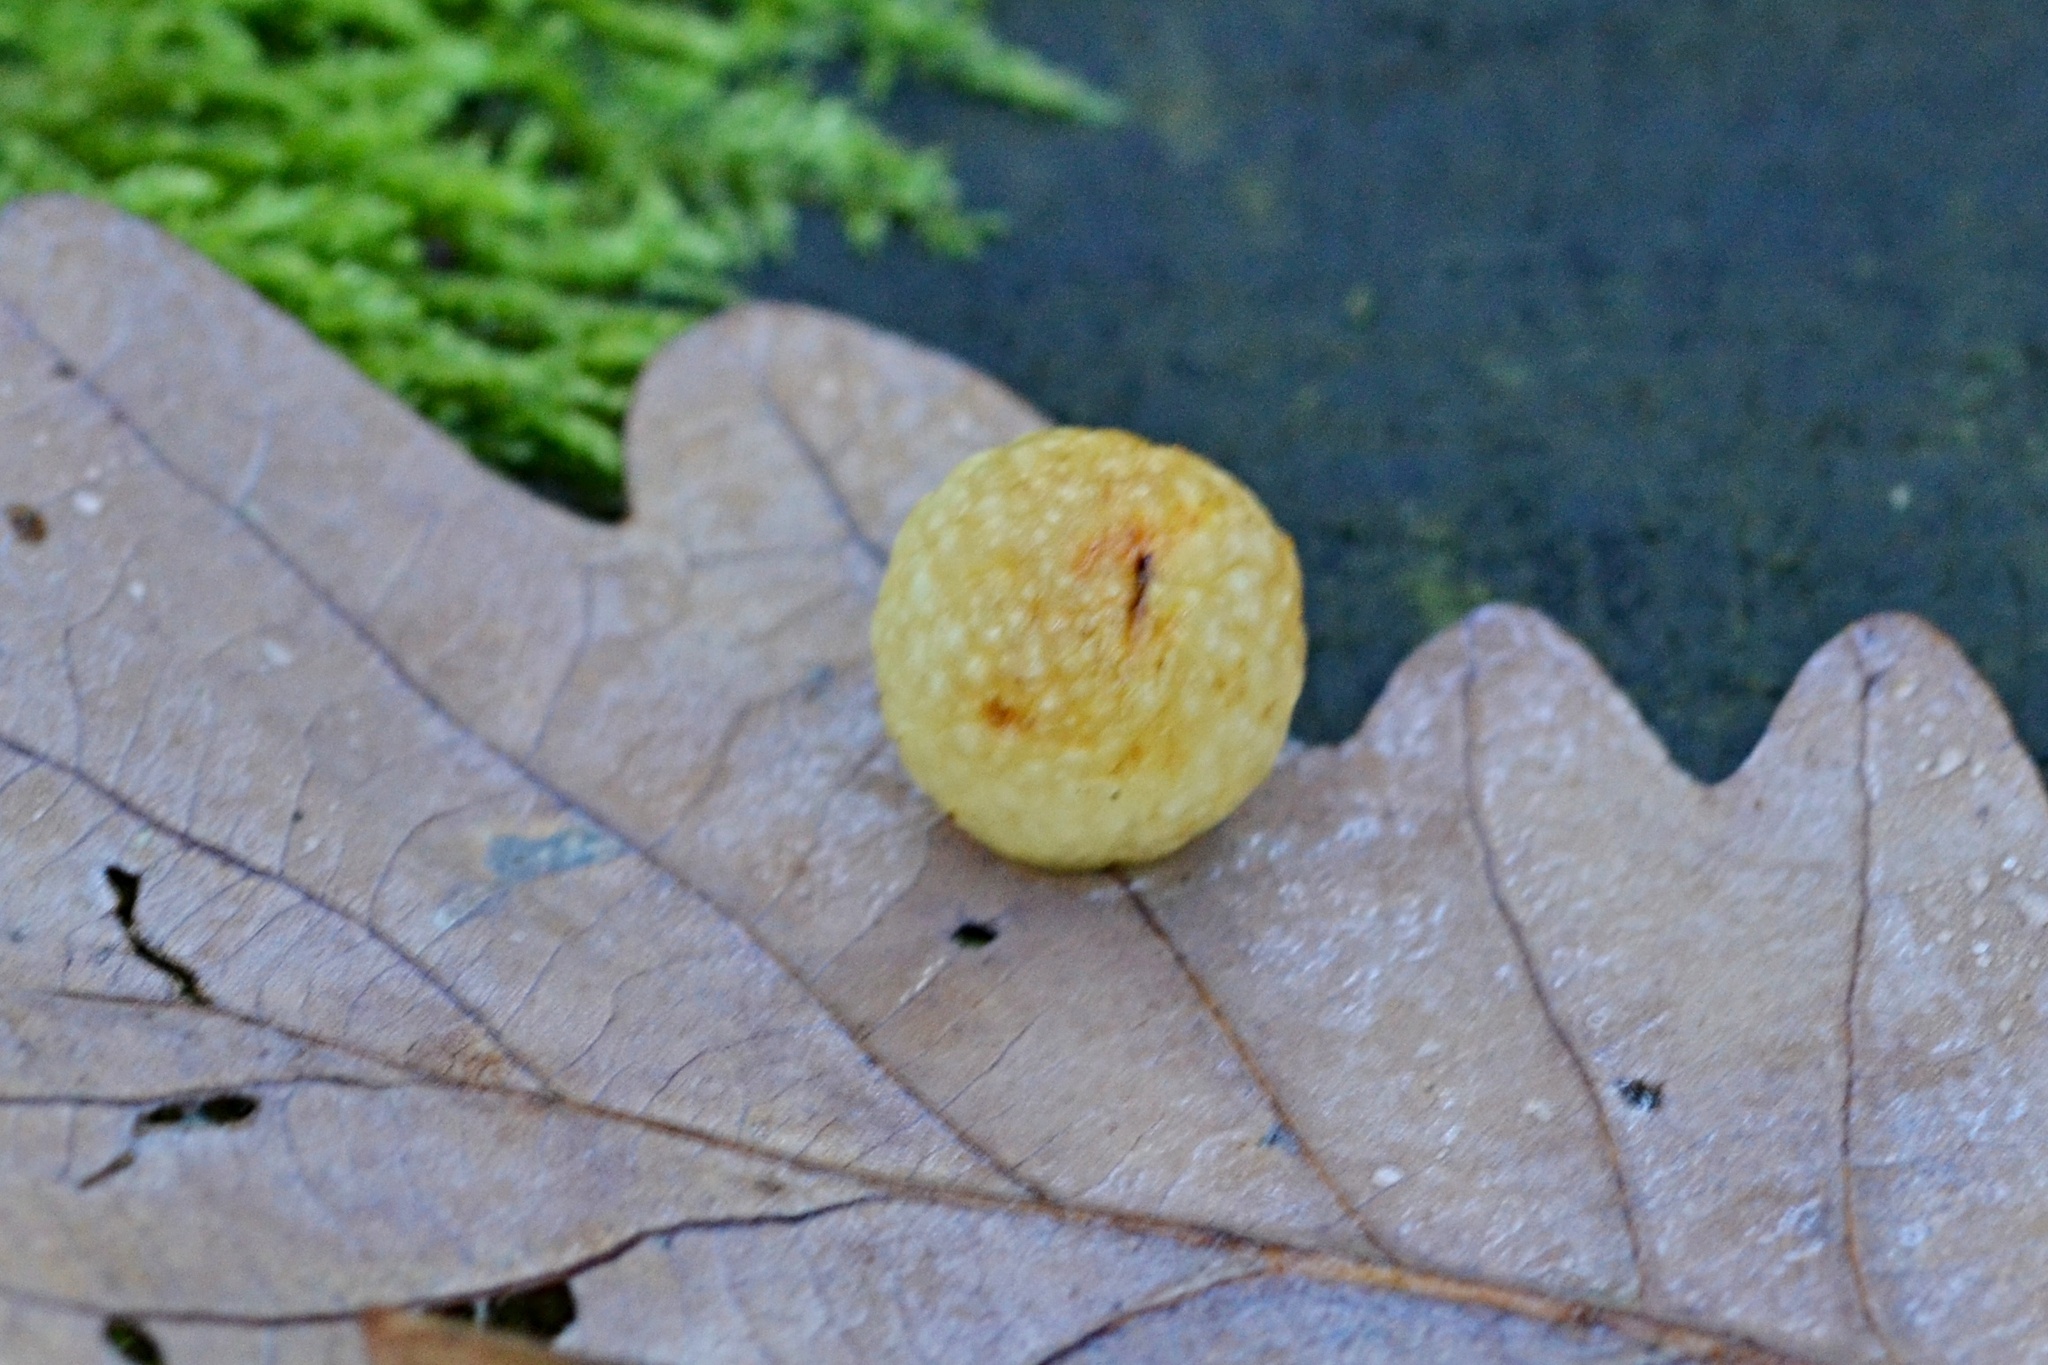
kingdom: Animalia
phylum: Arthropoda
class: Insecta
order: Hymenoptera
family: Cynipidae
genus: Cynips
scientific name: Cynips quercusfolii
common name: Cherry gall
